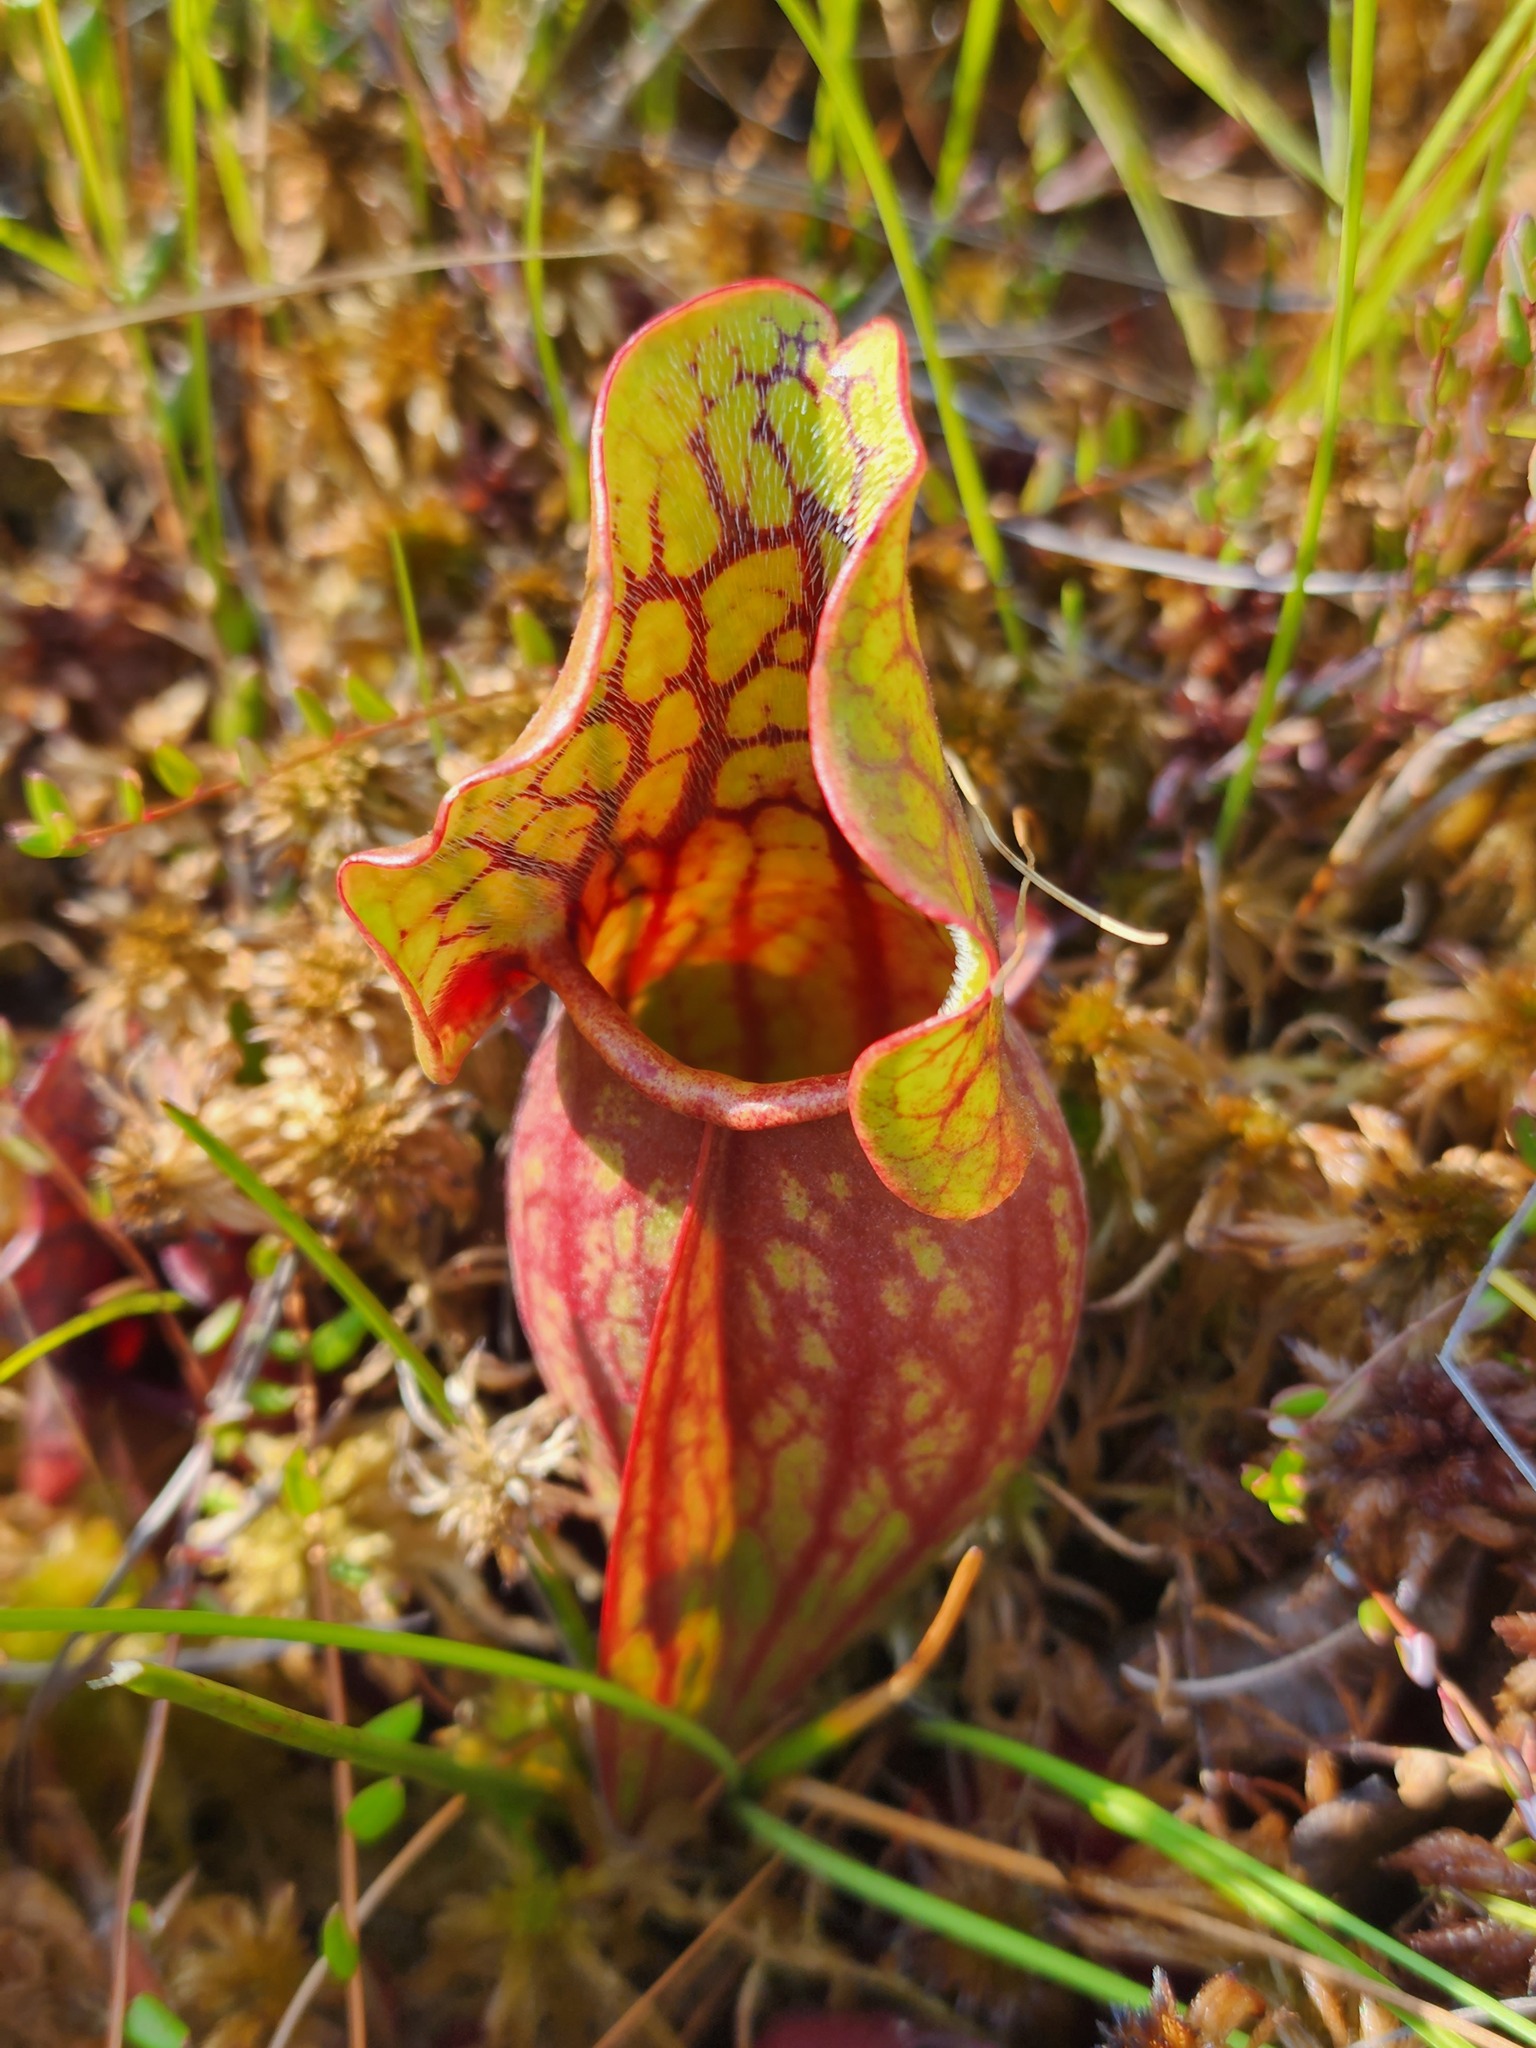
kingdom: Plantae
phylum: Tracheophyta
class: Magnoliopsida
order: Ericales
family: Sarraceniaceae
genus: Sarracenia
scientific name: Sarracenia purpurea
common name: Pitcherplant
